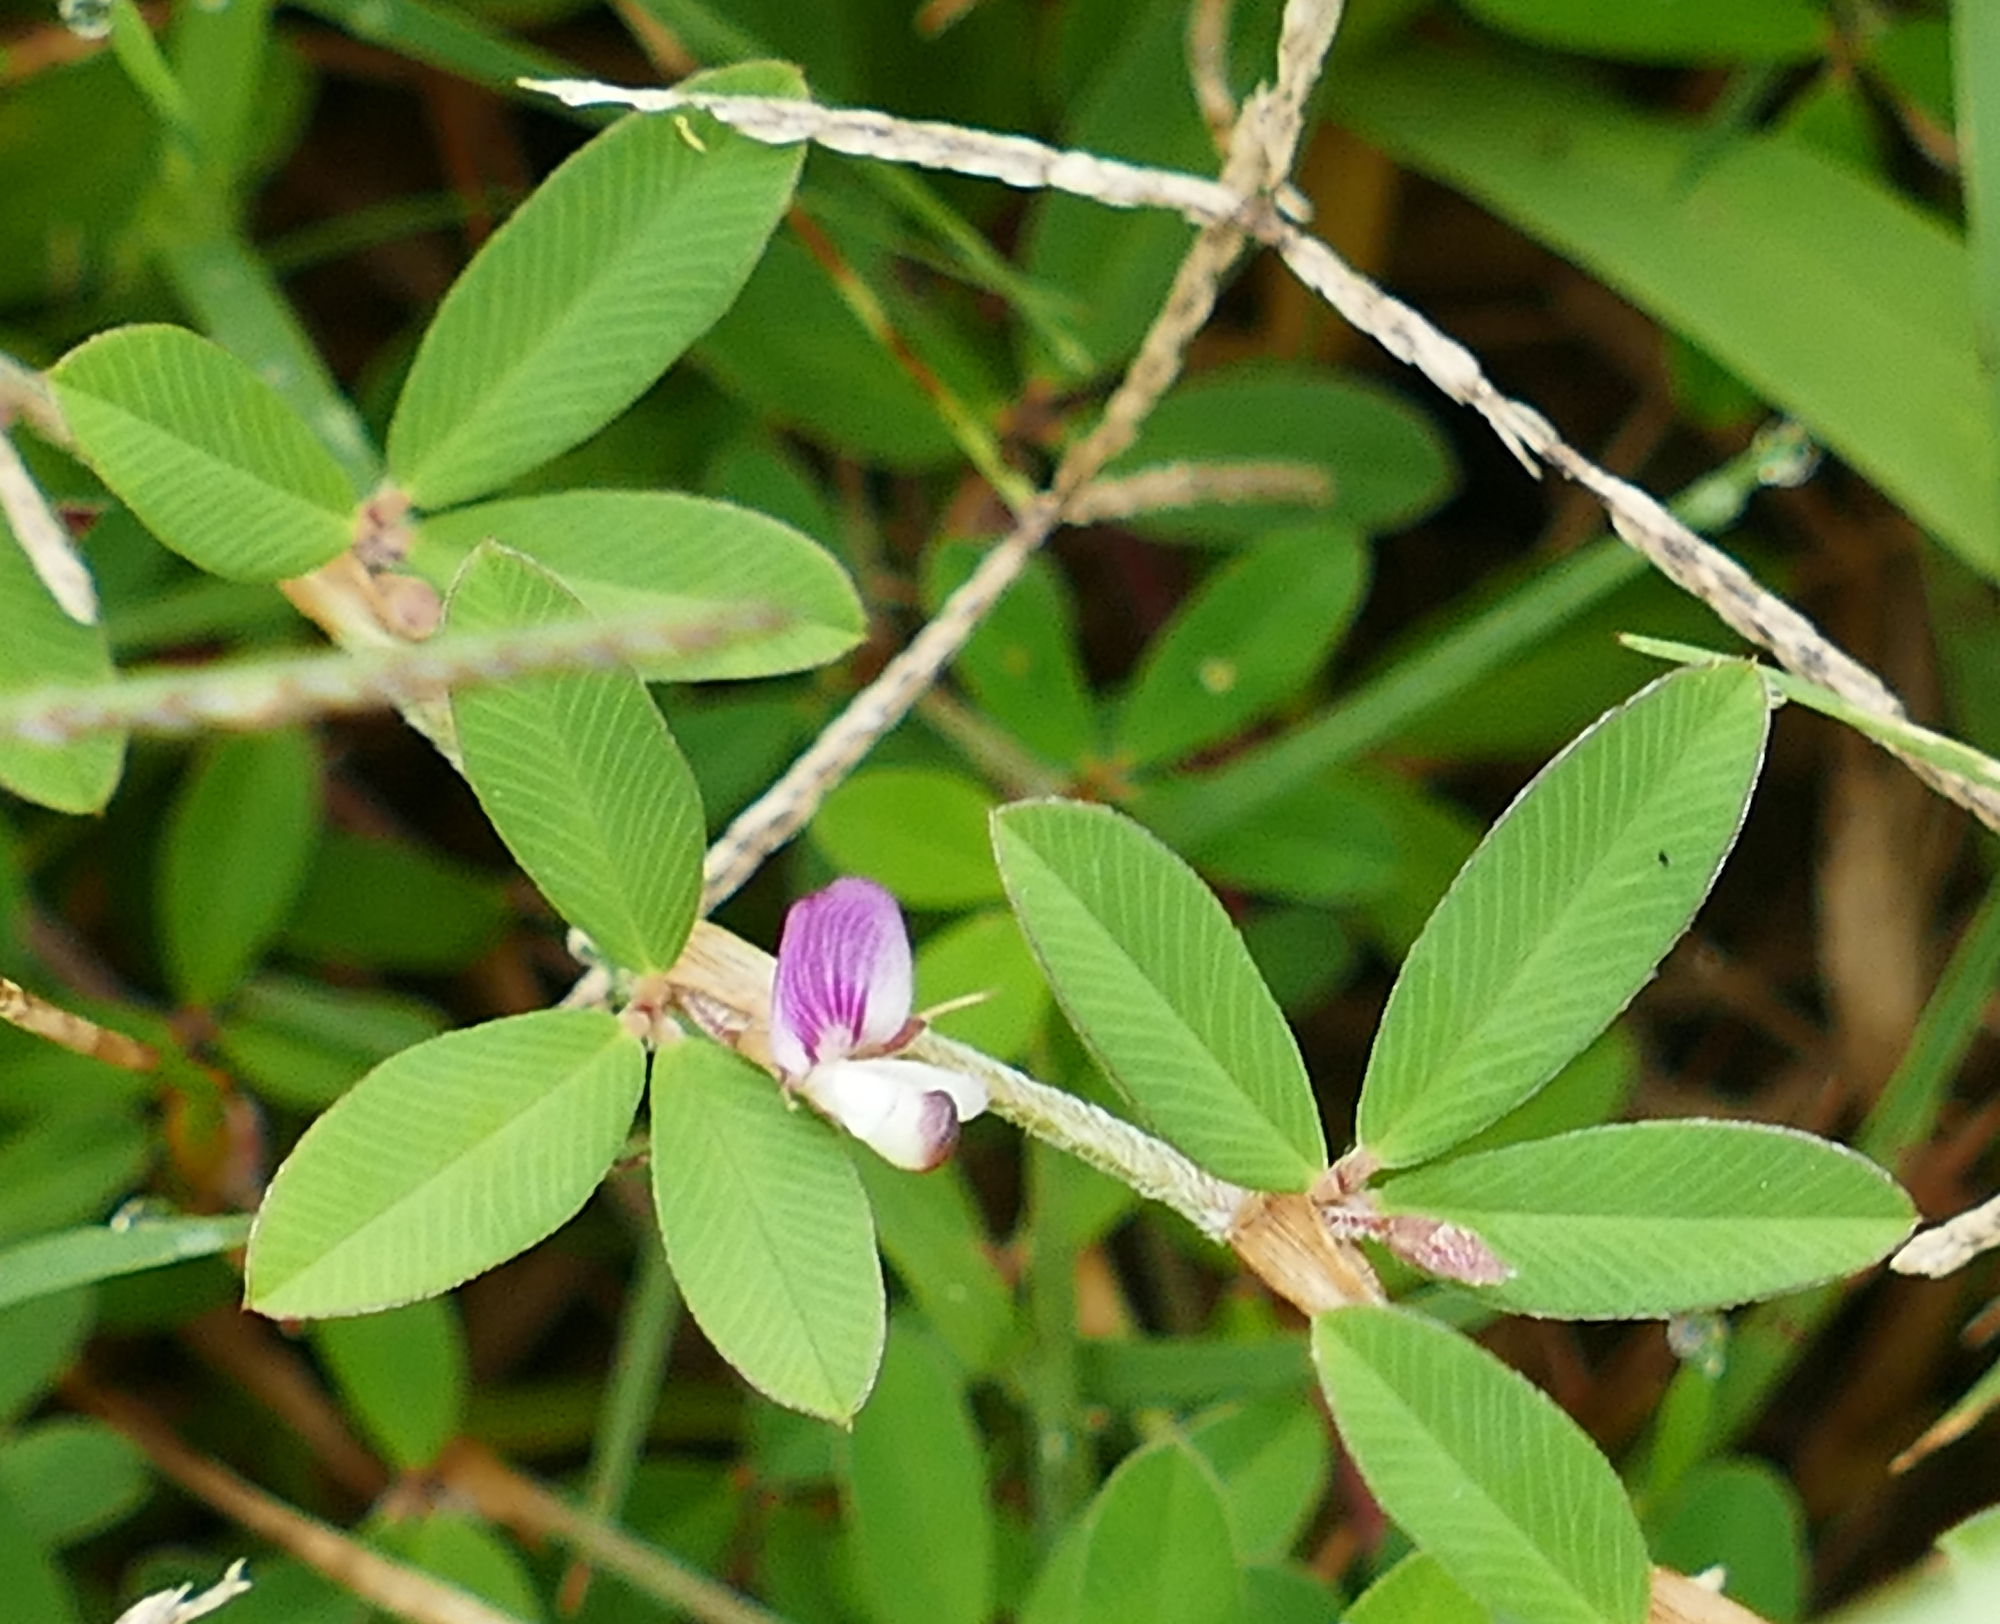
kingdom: Plantae
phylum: Tracheophyta
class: Magnoliopsida
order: Fabales
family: Fabaceae
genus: Kummerowia
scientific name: Kummerowia striata
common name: Japanese clover
